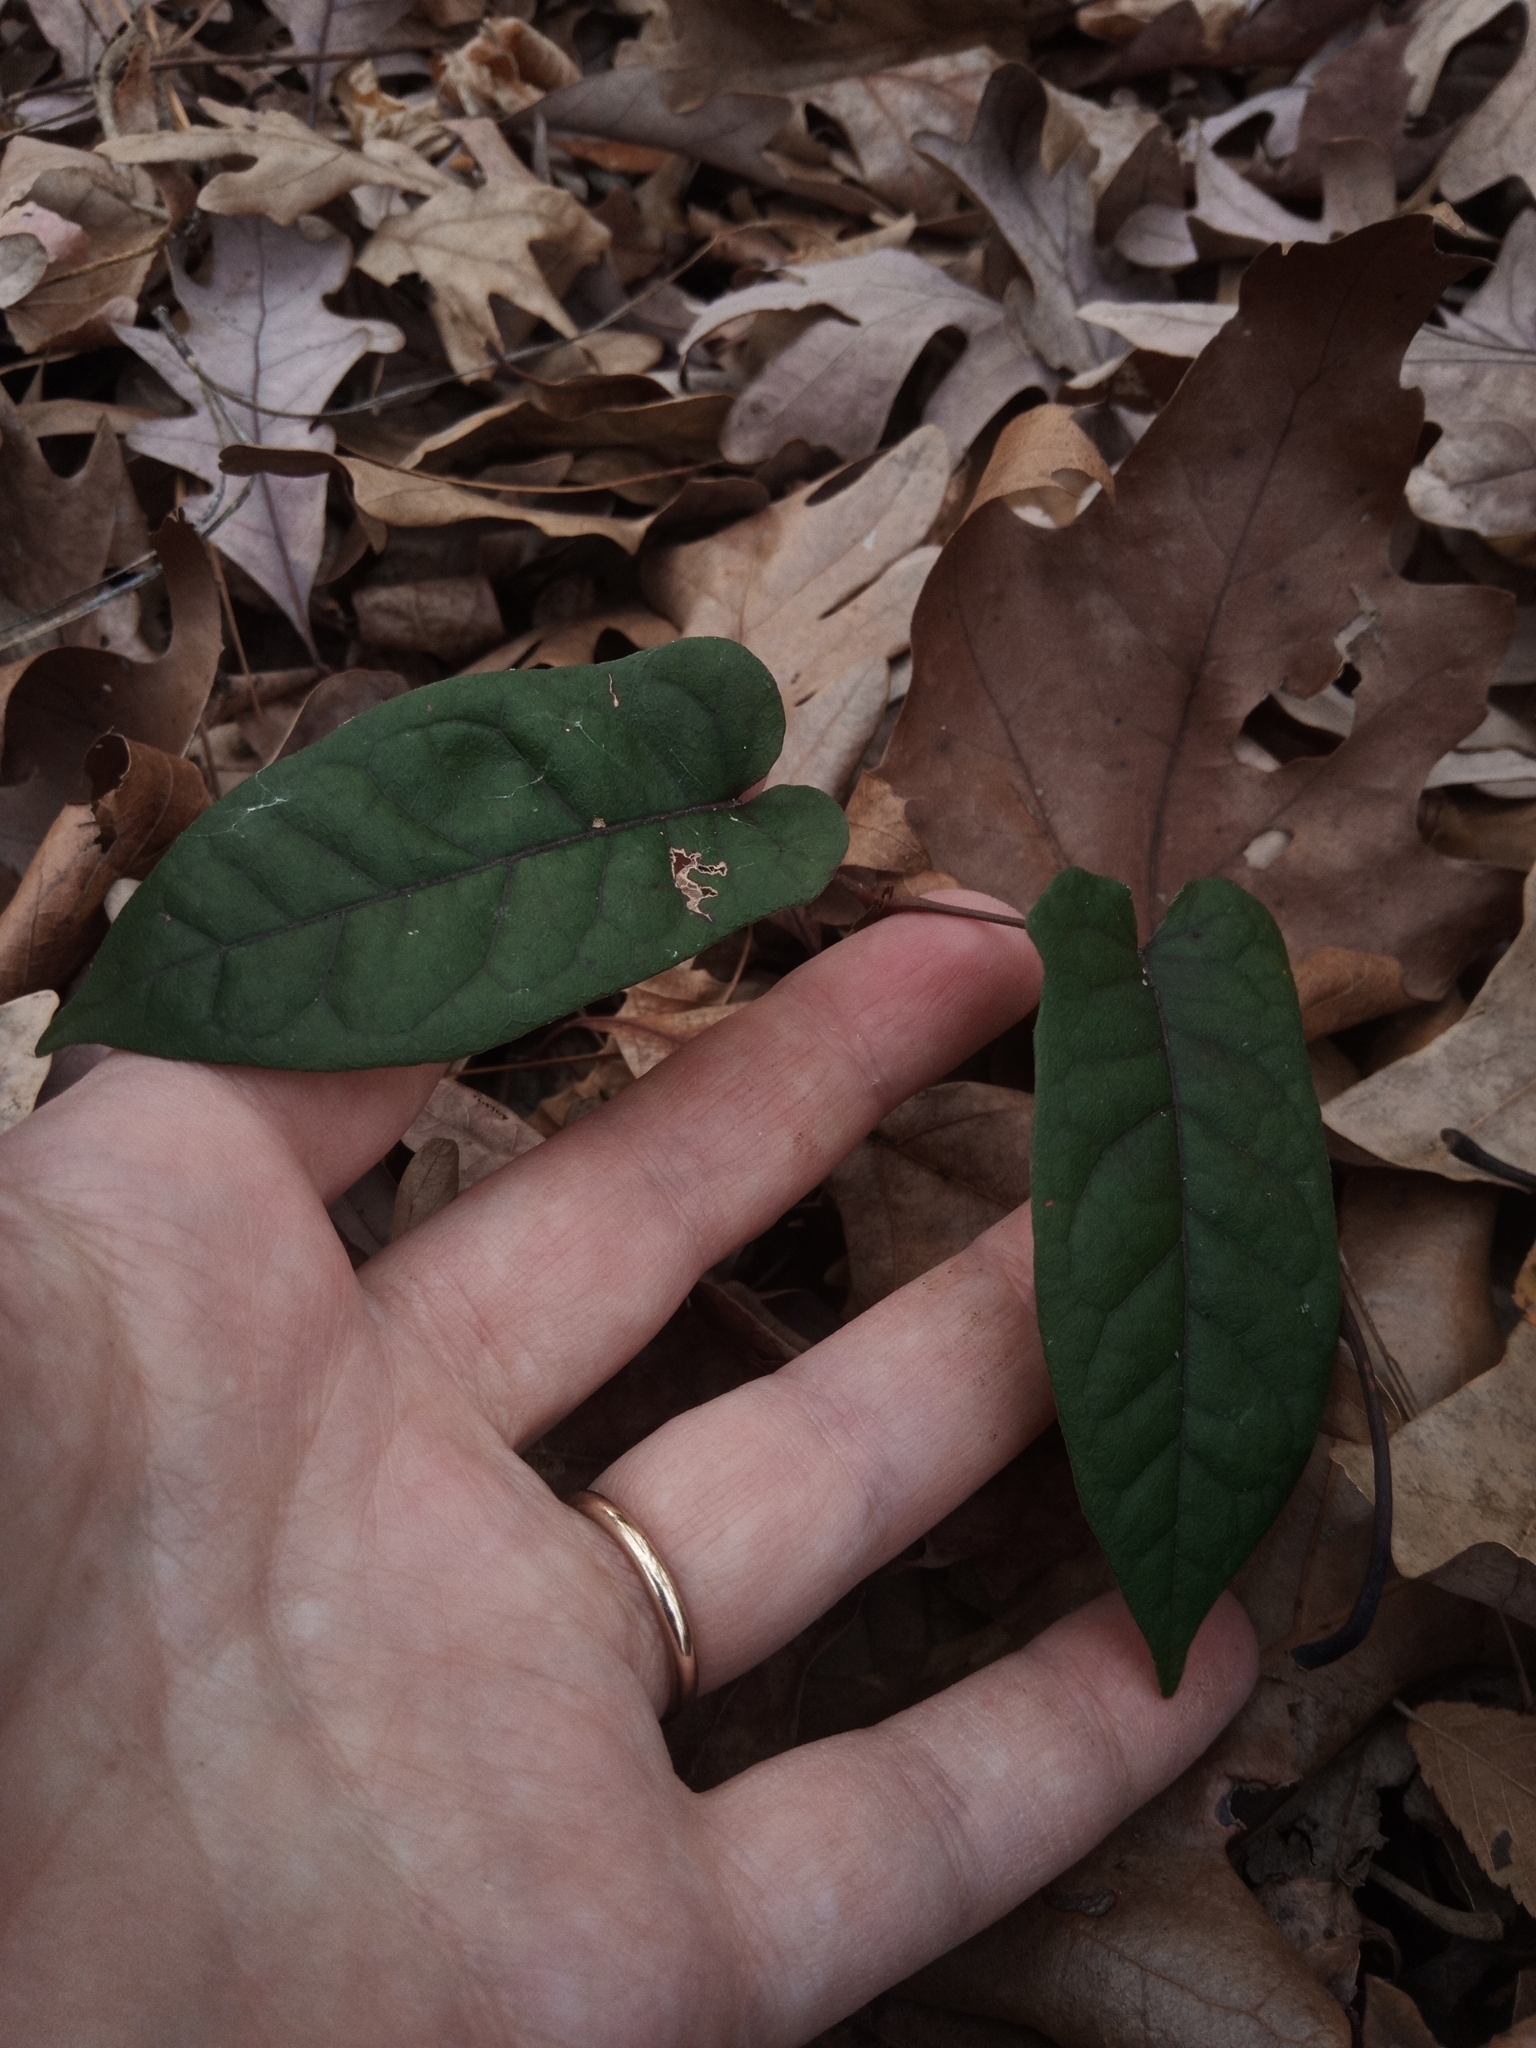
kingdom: Plantae
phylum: Tracheophyta
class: Magnoliopsida
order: Lamiales
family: Bignoniaceae
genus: Bignonia
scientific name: Bignonia capreolata
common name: Crossvine
